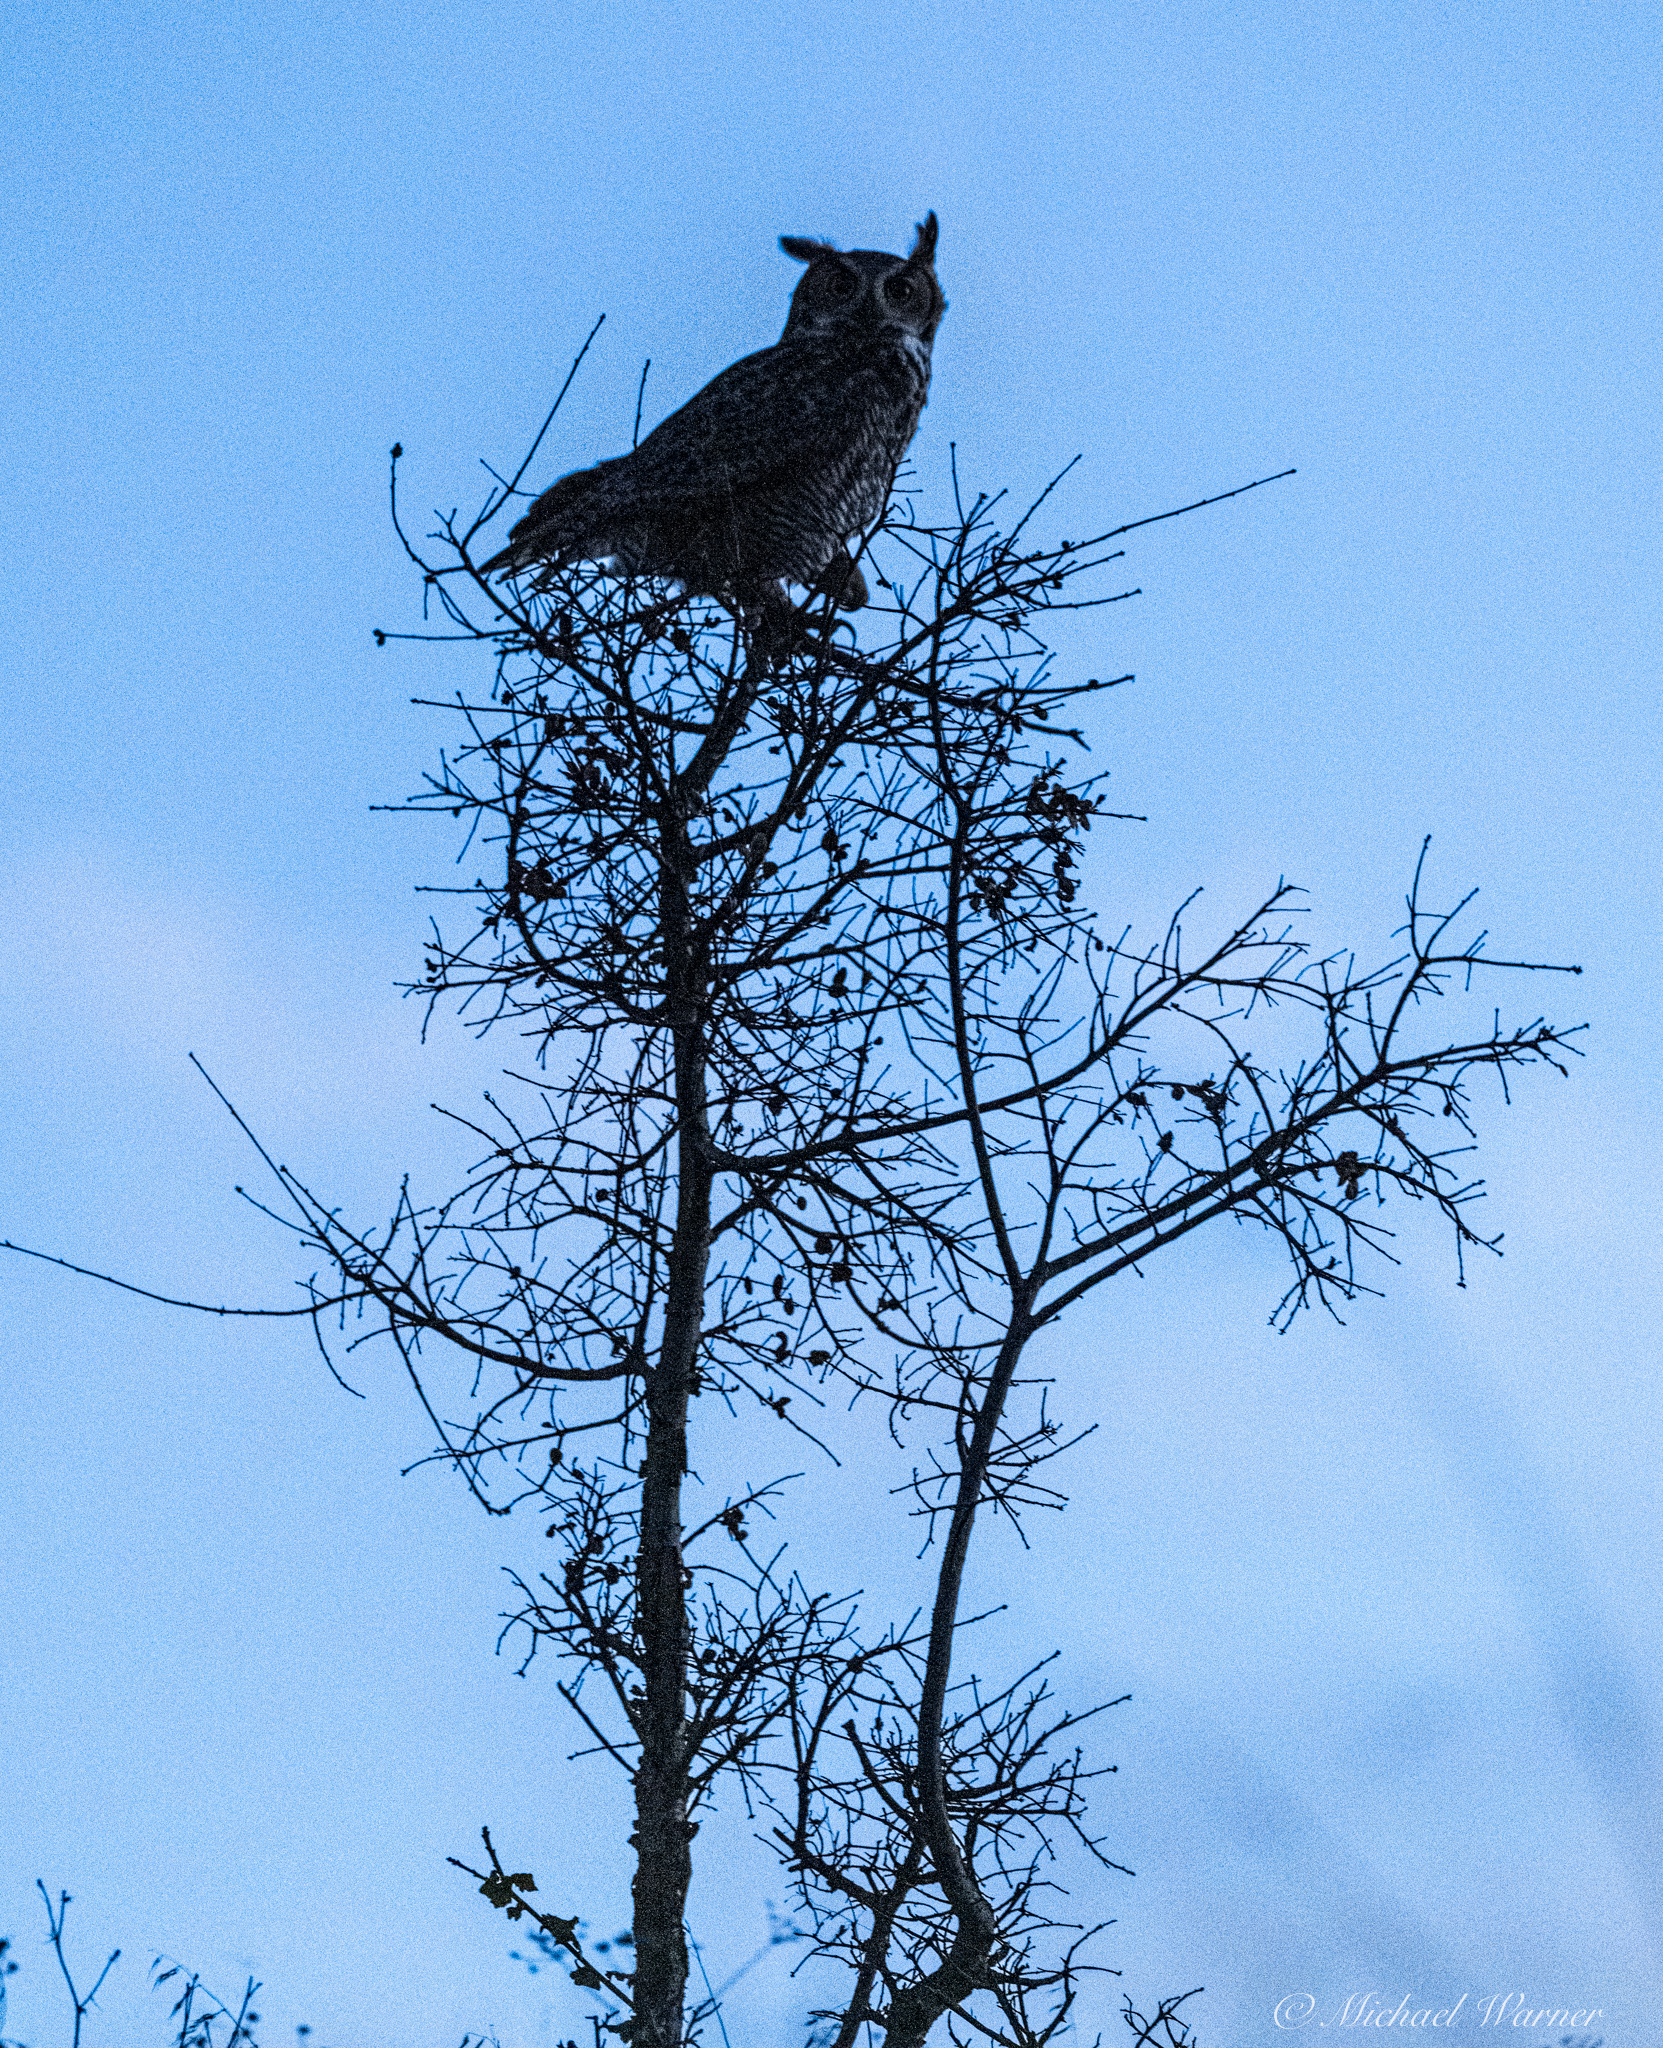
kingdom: Animalia
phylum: Chordata
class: Aves
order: Strigiformes
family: Strigidae
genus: Bubo
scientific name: Bubo virginianus
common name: Great horned owl
